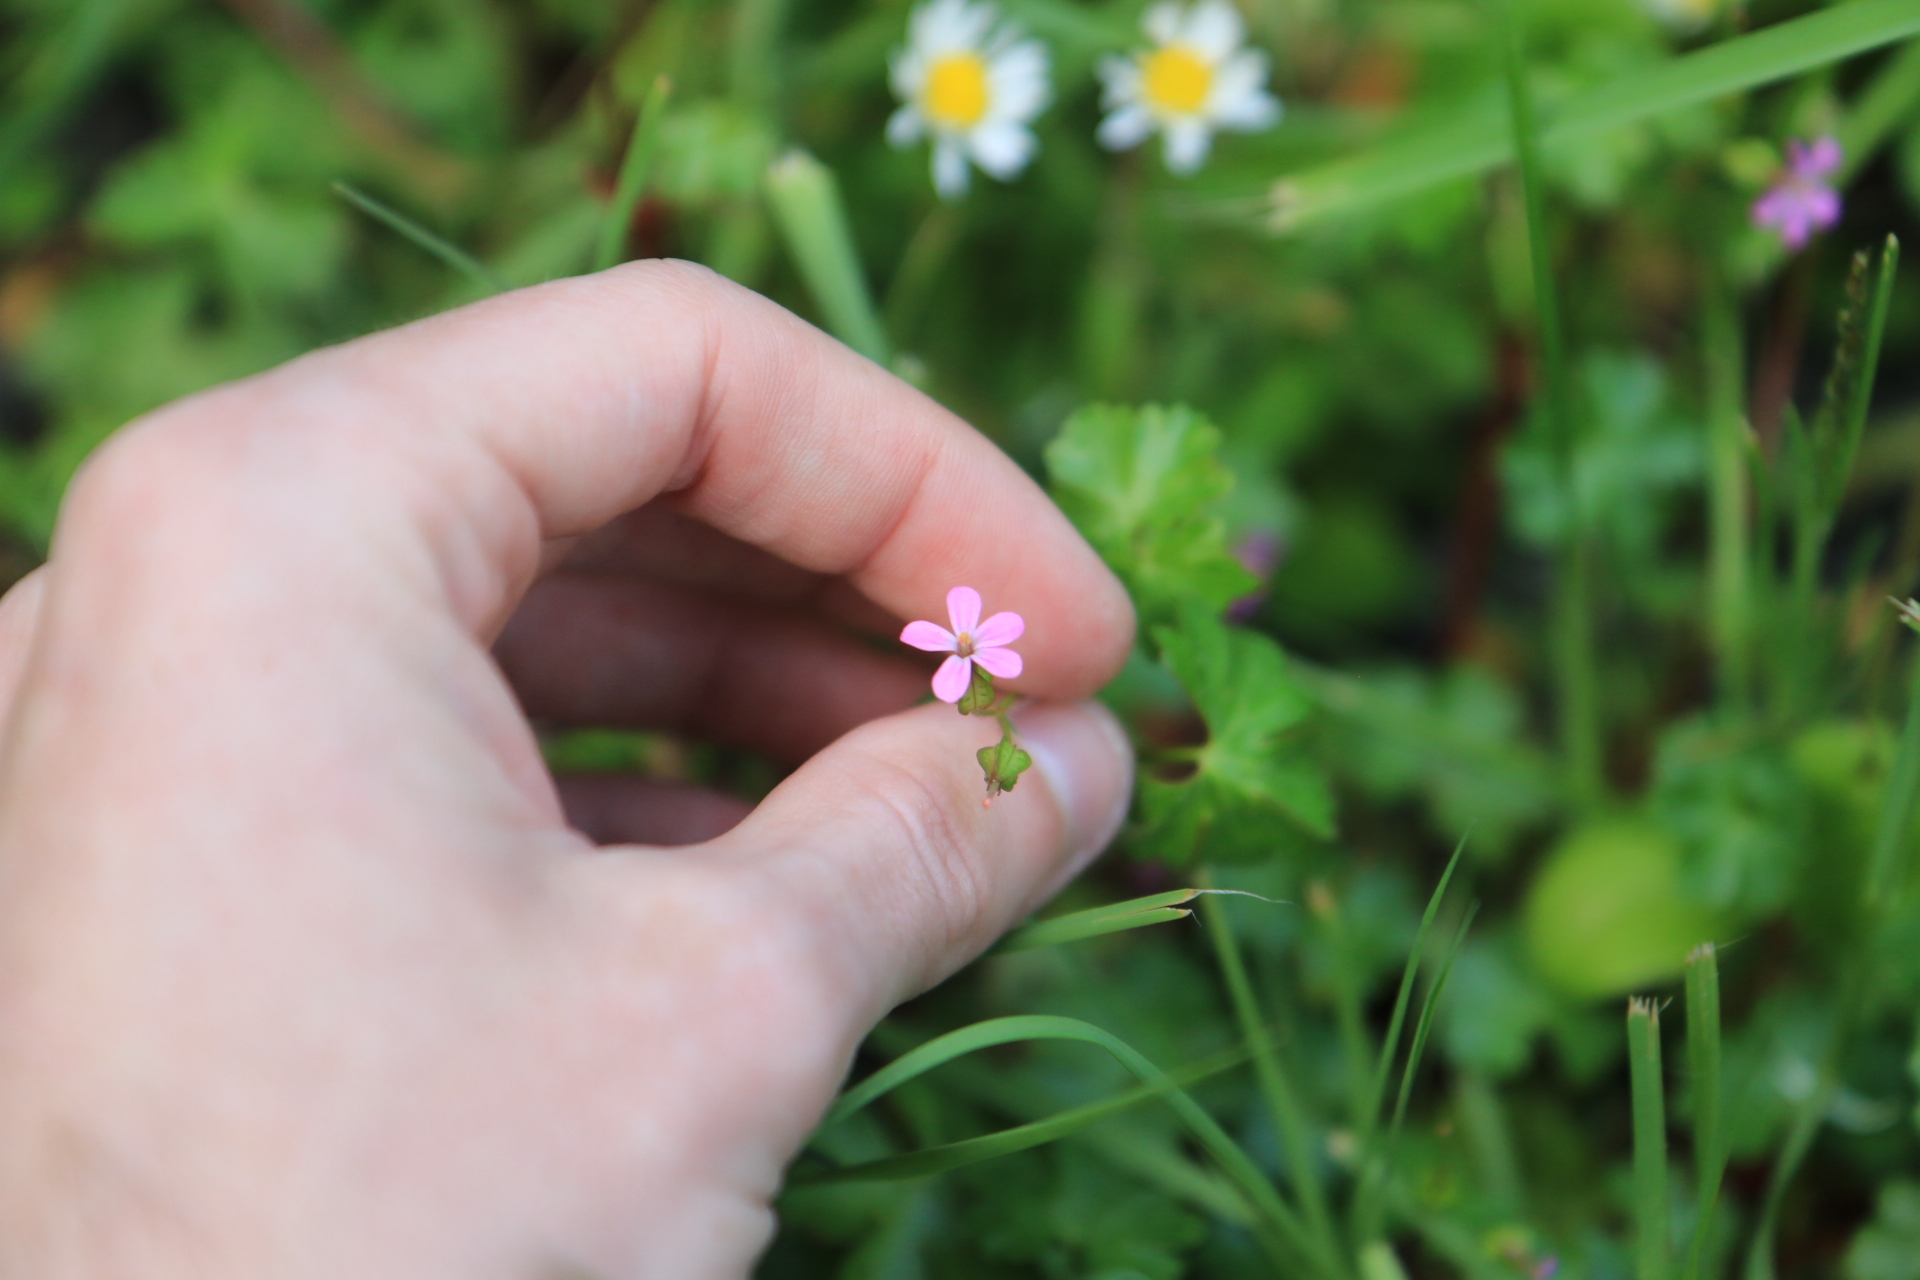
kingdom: Plantae
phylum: Tracheophyta
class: Magnoliopsida
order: Geraniales
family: Geraniaceae
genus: Geranium
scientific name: Geranium lucidum
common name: Shining crane's-bill
